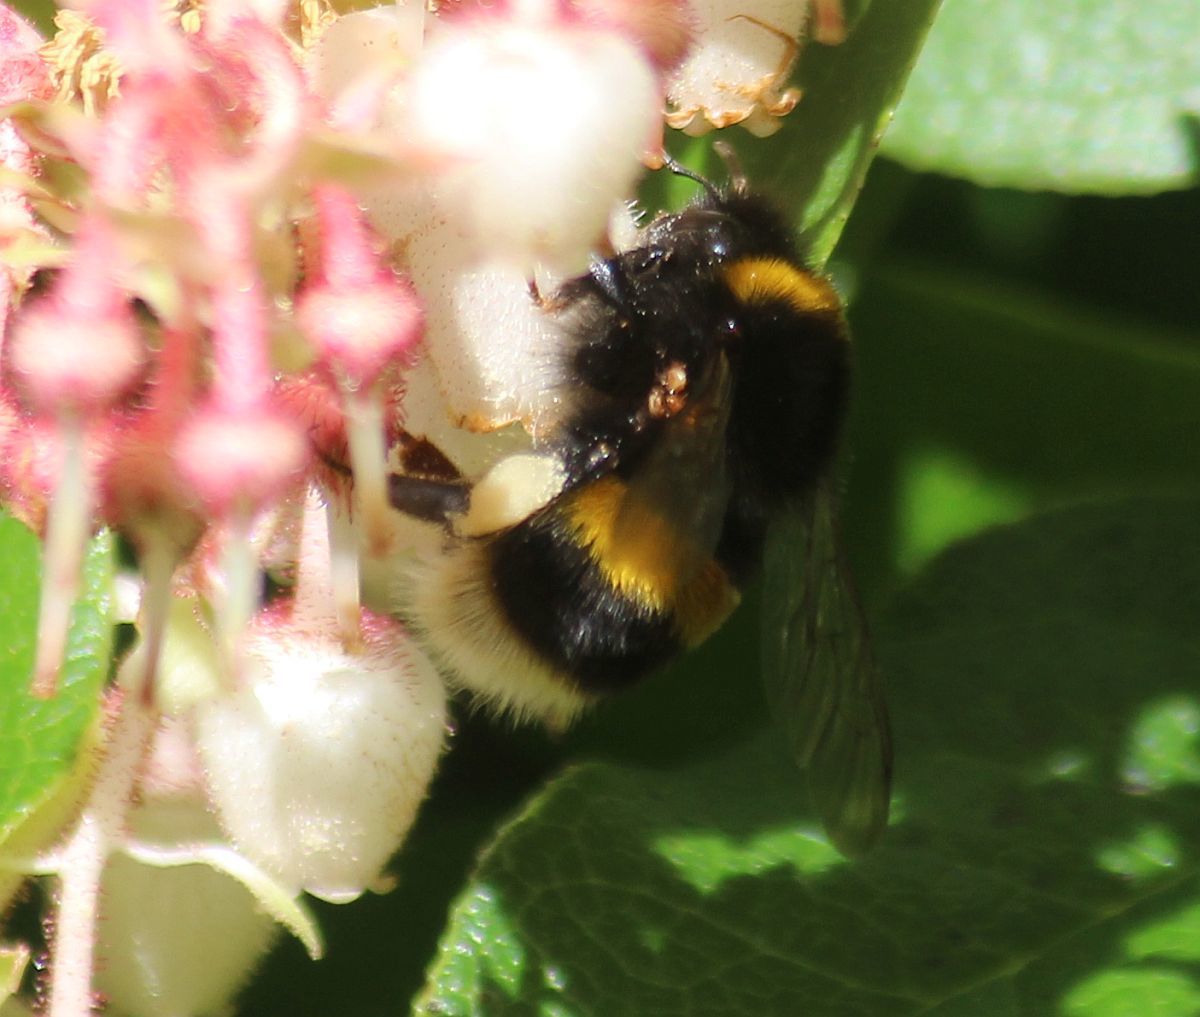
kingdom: Animalia
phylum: Arthropoda
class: Insecta
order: Hymenoptera
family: Apidae
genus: Bombus
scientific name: Bombus terrestris
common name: Buff-tailed bumblebee
